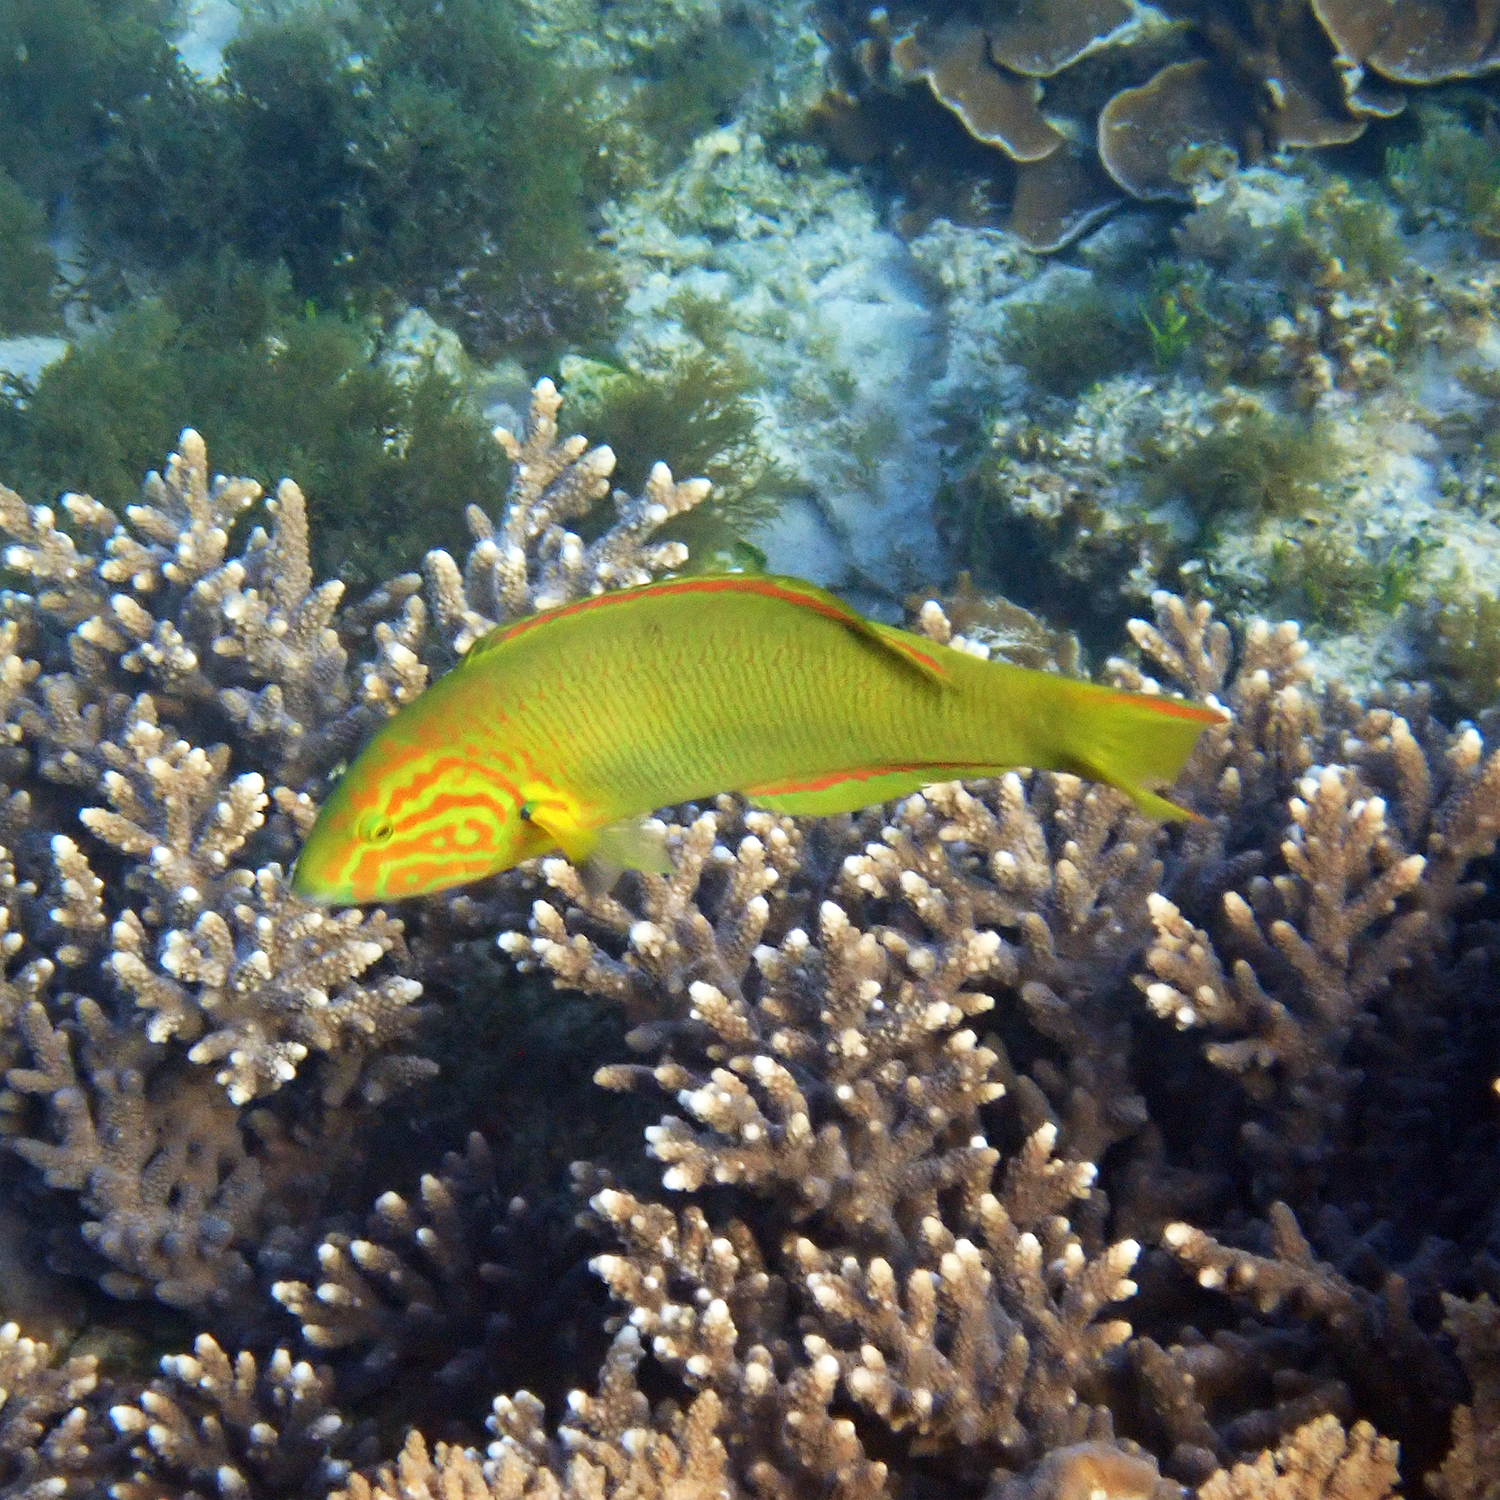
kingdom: Animalia
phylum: Chordata
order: Perciformes
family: Labridae
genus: Thalassoma
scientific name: Thalassoma lutescens
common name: Green moon wrasse
